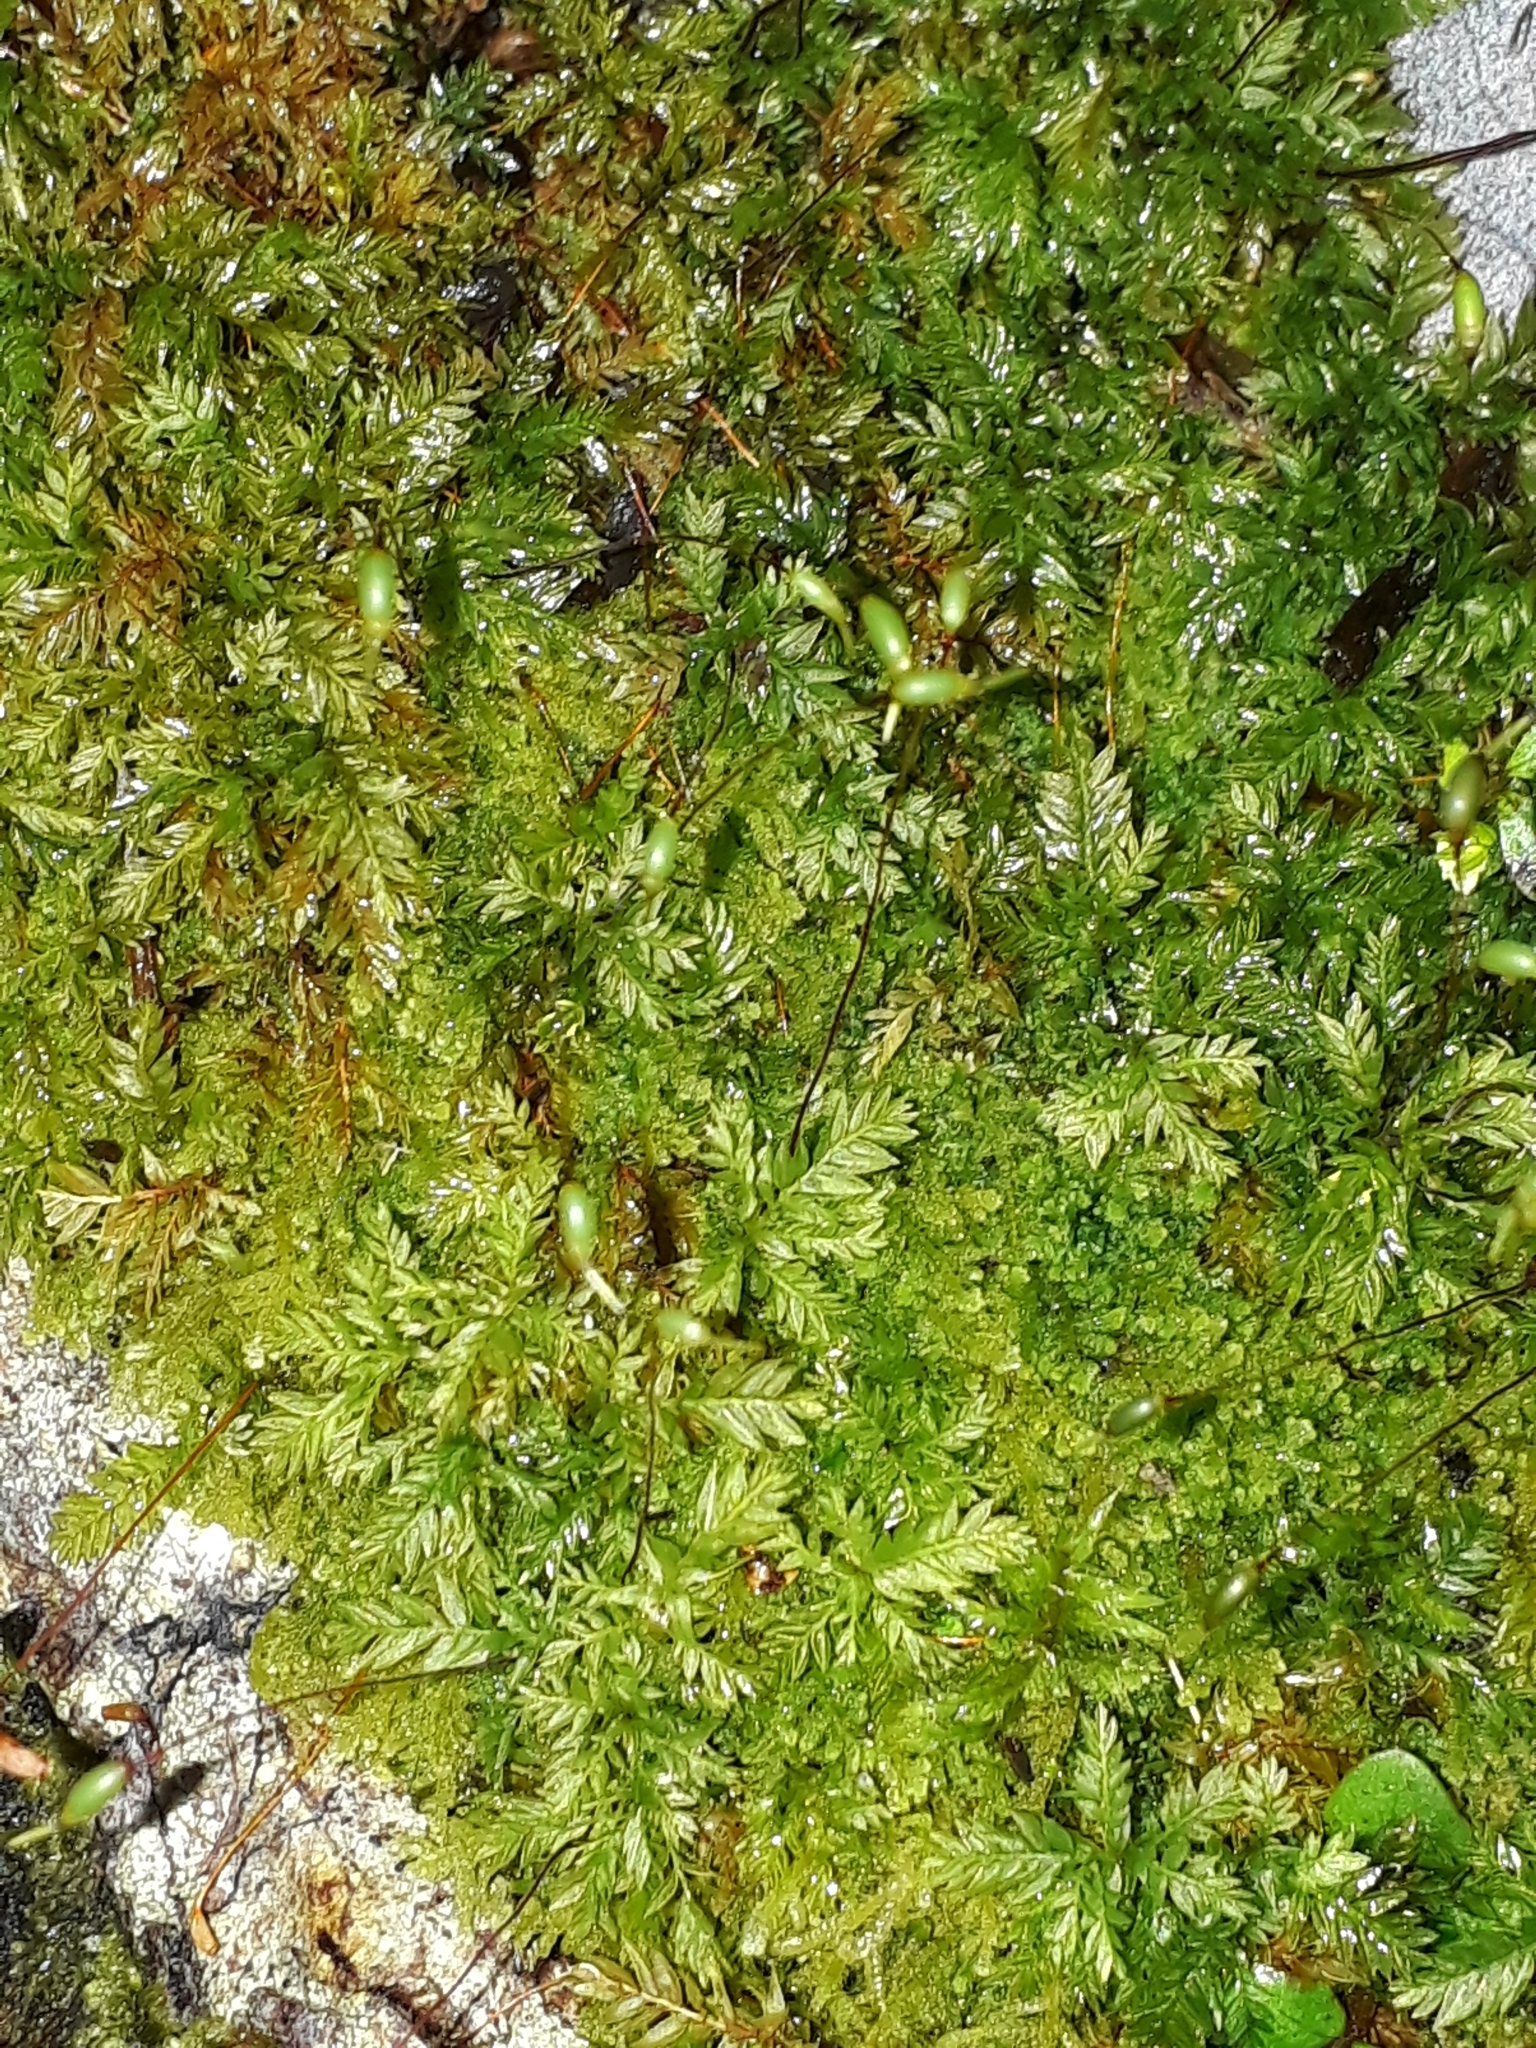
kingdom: Plantae
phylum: Bryophyta
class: Bryopsida
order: Aulacomniales
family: Aulacomniaceae
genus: Hymenodontopsis
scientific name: Hymenodontopsis bifaria
